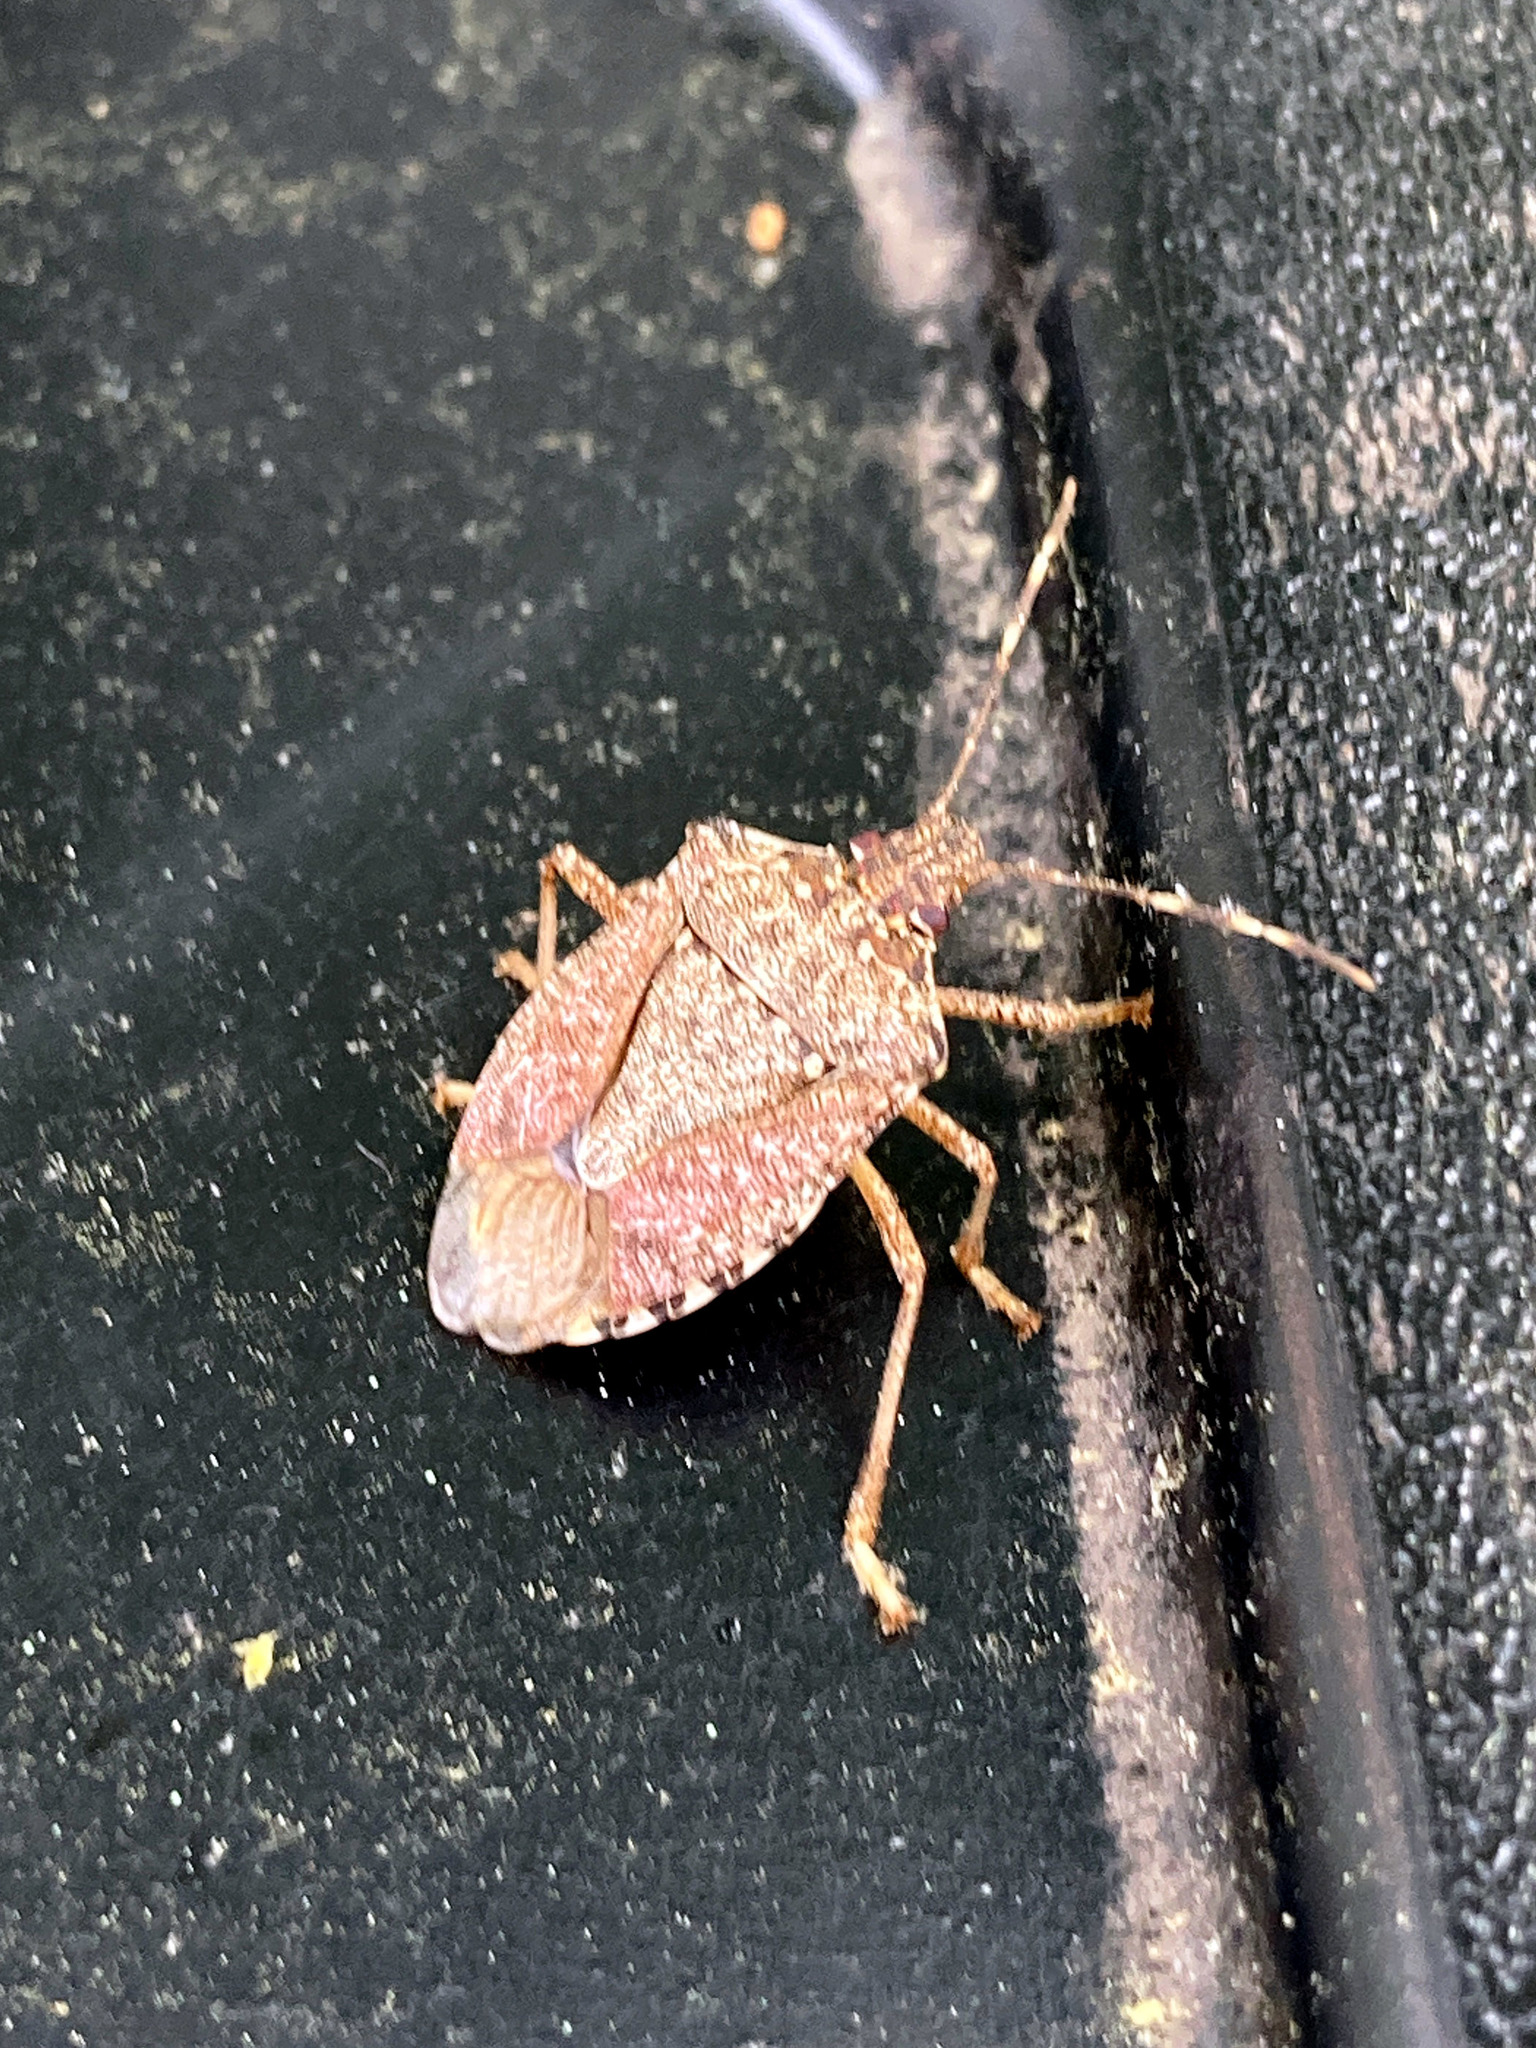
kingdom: Animalia
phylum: Arthropoda
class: Insecta
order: Hemiptera
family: Pentatomidae
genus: Halyomorpha
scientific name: Halyomorpha halys
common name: Brown marmorated stink bug
